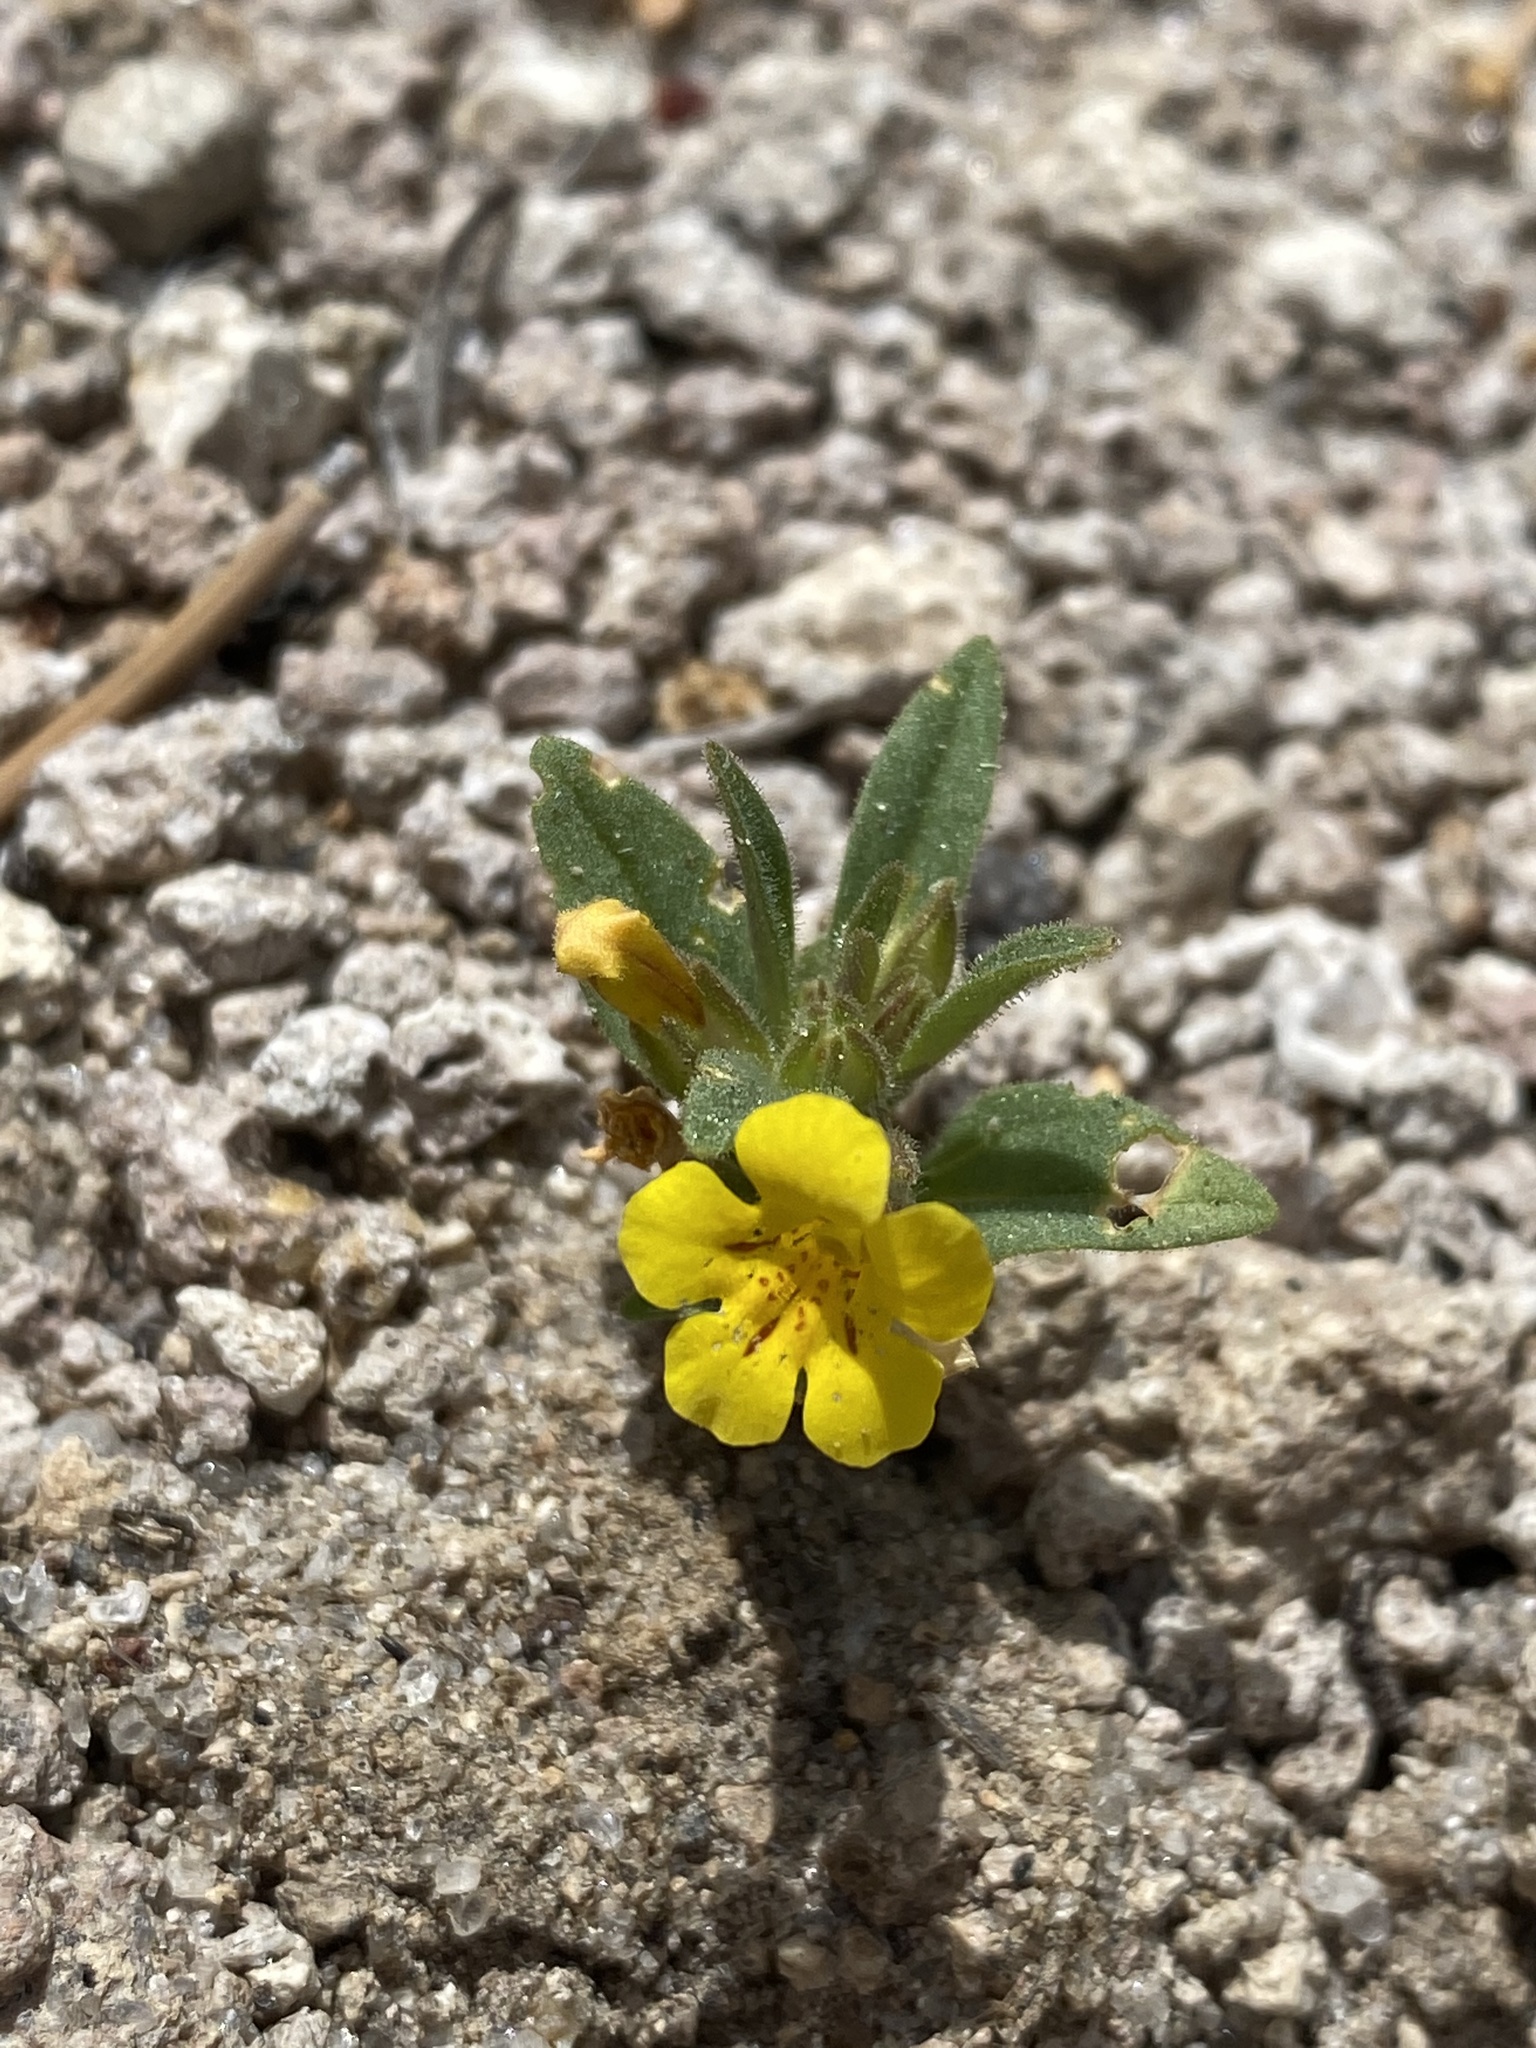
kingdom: Plantae
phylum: Tracheophyta
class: Magnoliopsida
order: Lamiales
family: Phrymaceae
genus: Diplacus
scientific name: Diplacus mephiticus
